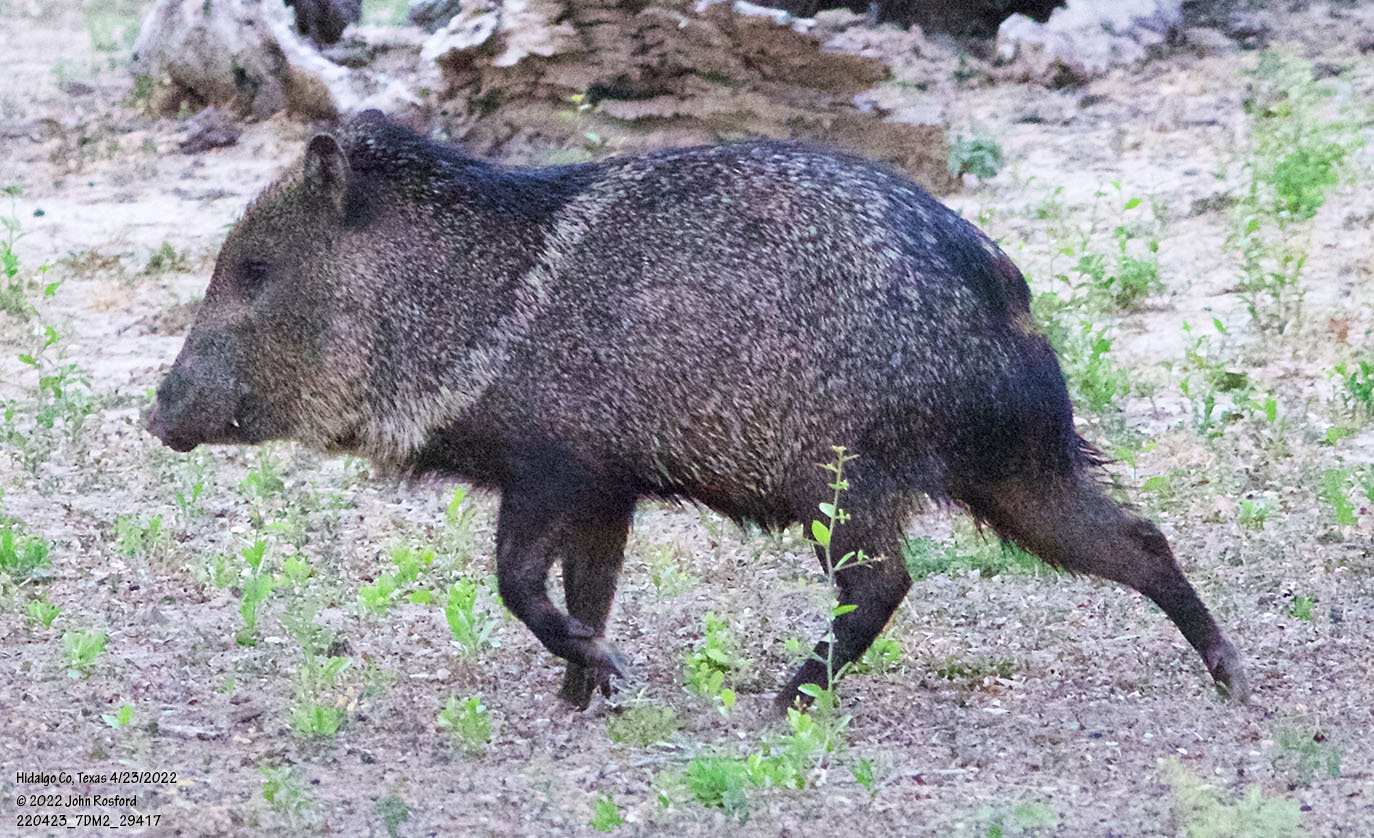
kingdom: Animalia
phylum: Chordata
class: Mammalia
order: Artiodactyla
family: Tayassuidae
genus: Pecari
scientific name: Pecari tajacu
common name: Collared peccary
